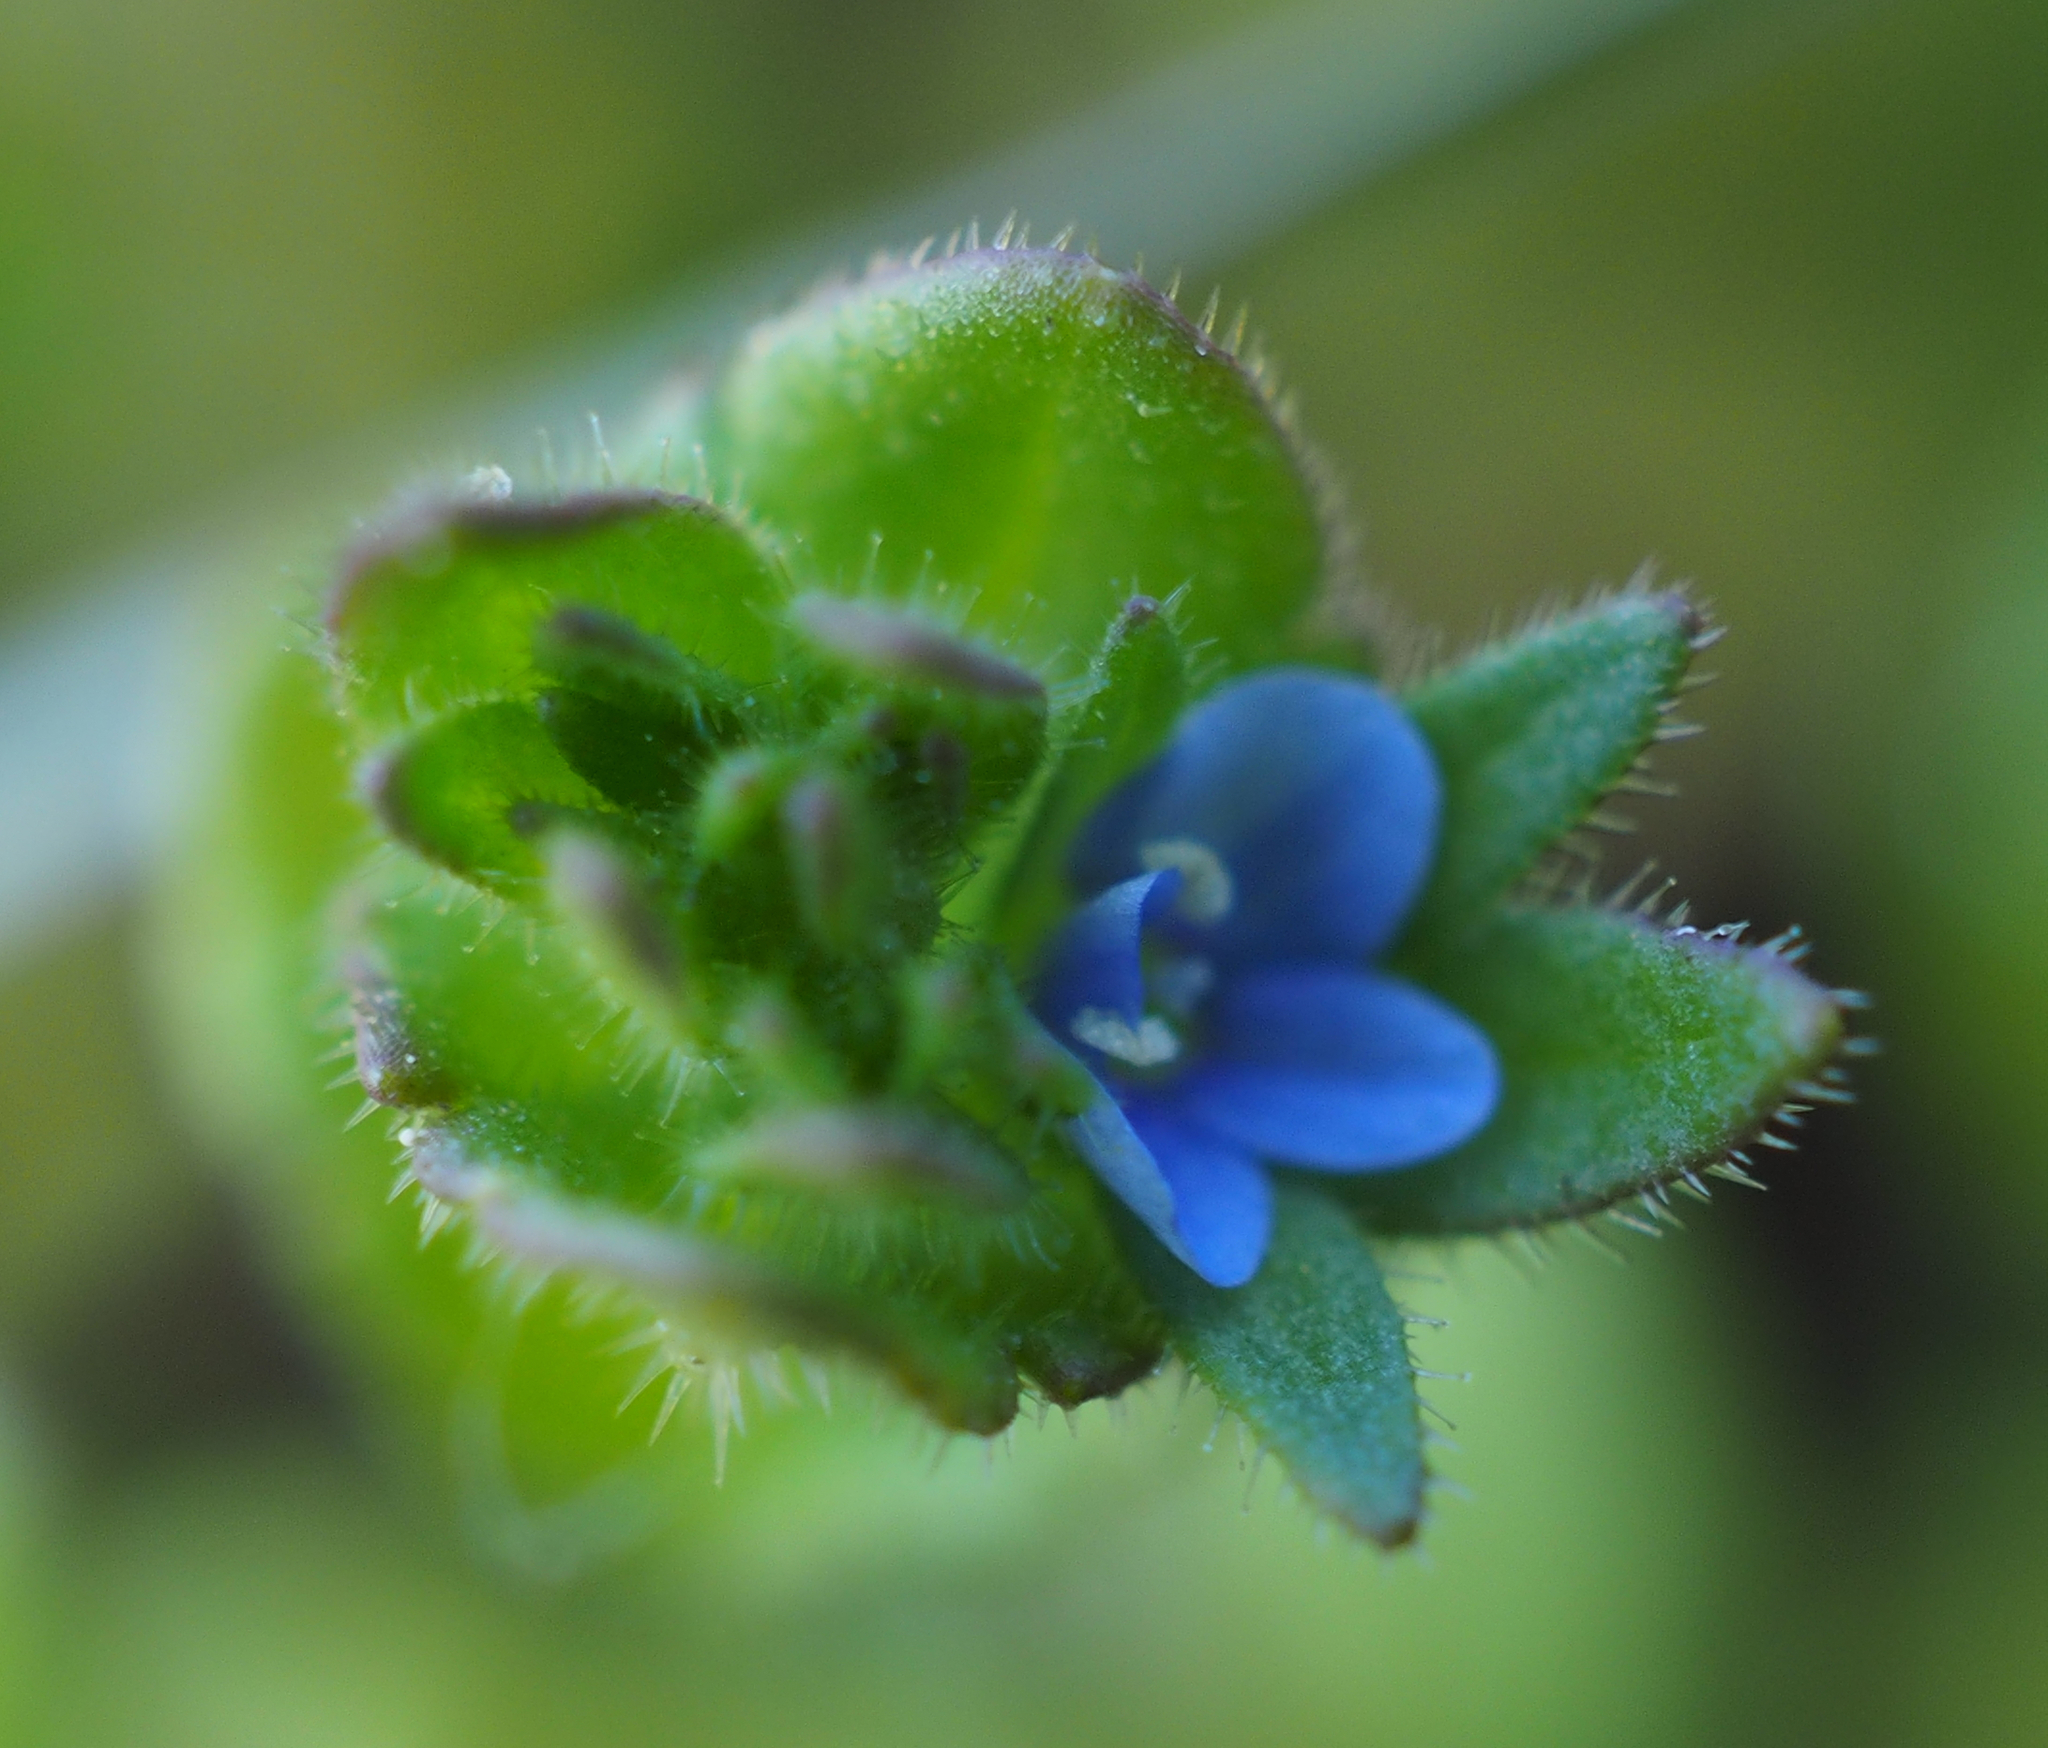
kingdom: Plantae
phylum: Tracheophyta
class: Magnoliopsida
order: Lamiales
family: Plantaginaceae
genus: Veronica
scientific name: Veronica arvensis
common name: Corn speedwell
